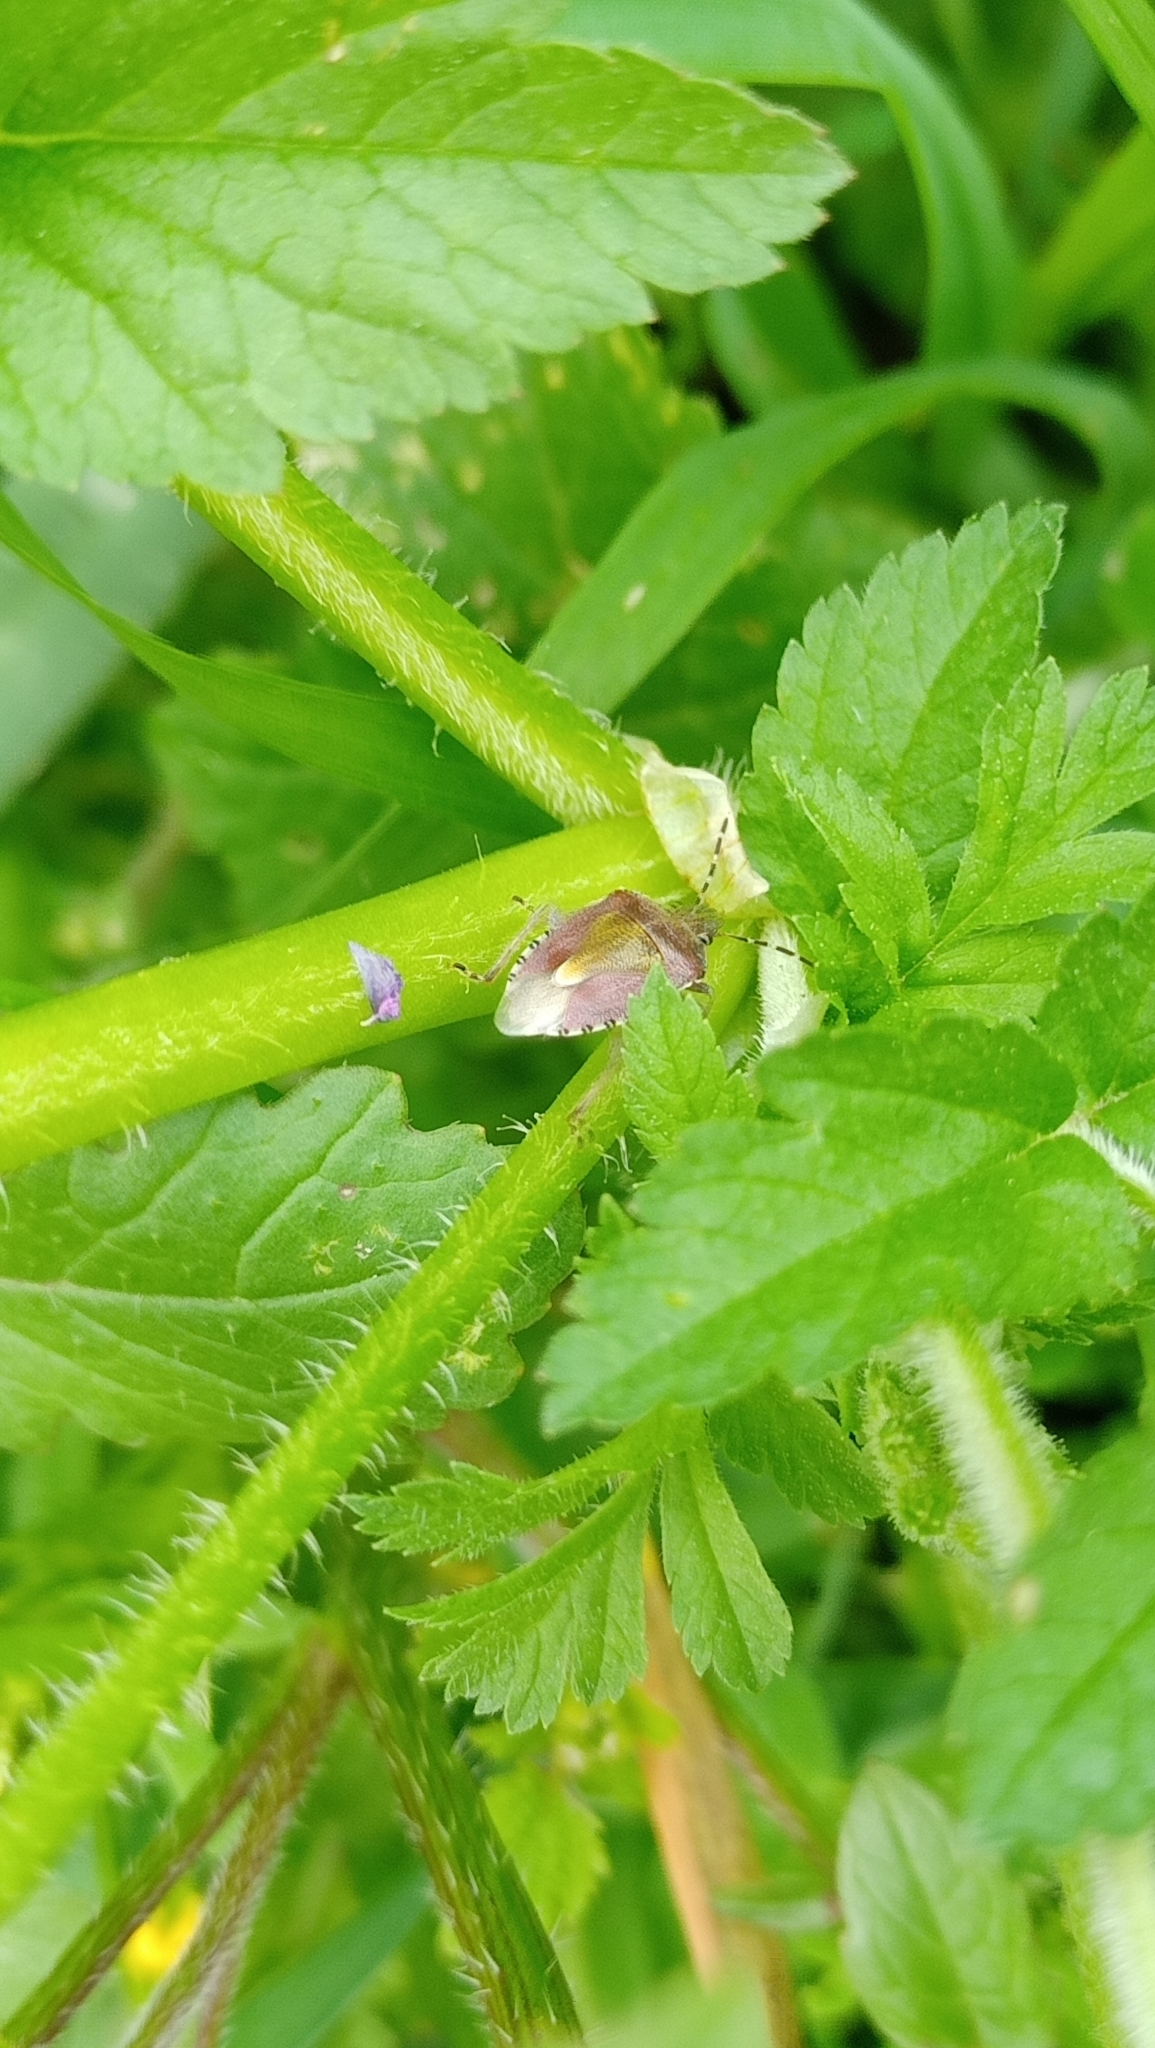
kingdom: Animalia
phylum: Arthropoda
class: Insecta
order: Hemiptera
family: Pentatomidae
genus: Dolycoris
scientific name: Dolycoris baccarum
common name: Sloe bug
